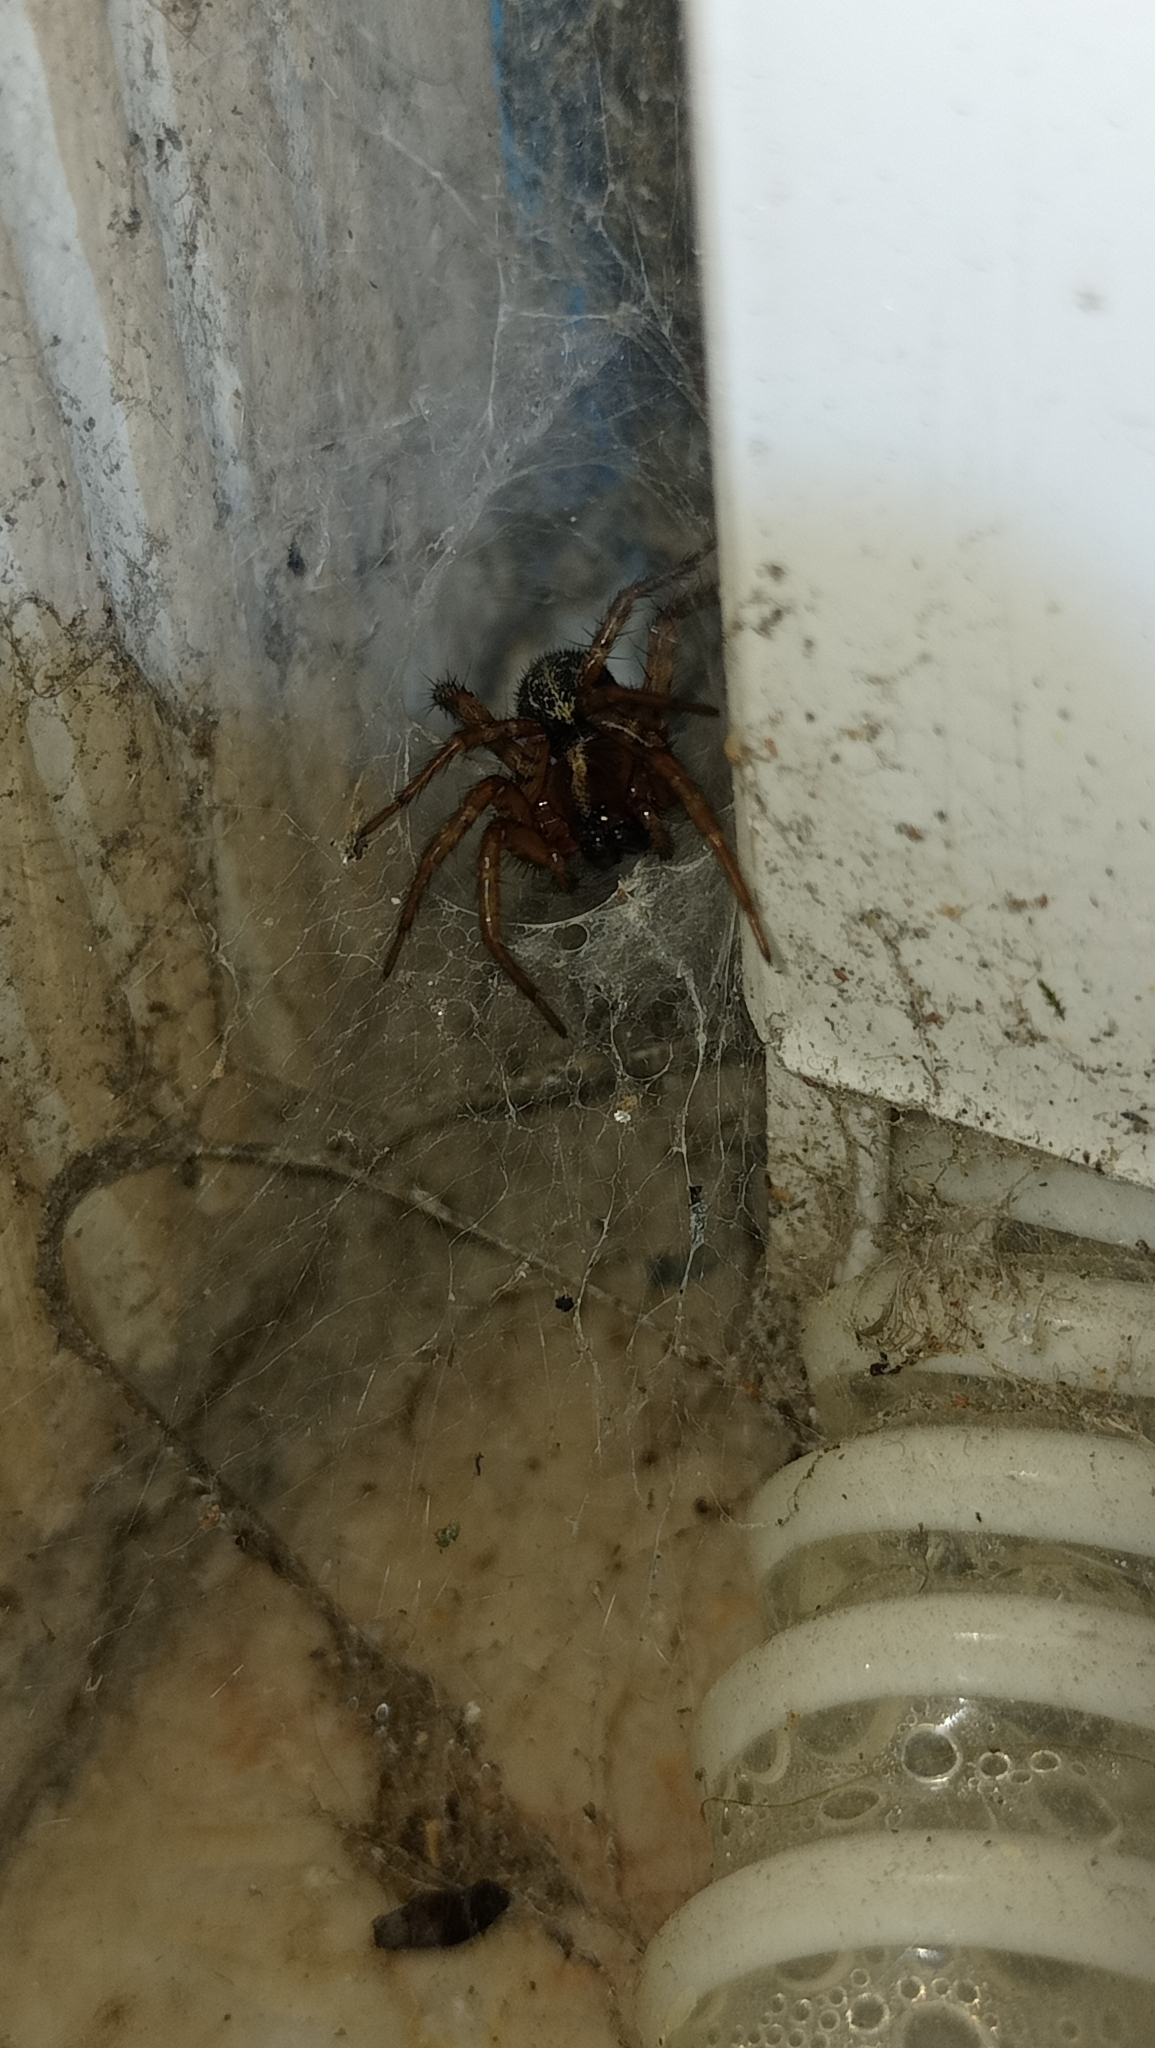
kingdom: Animalia
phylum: Arthropoda
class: Arachnida
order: Araneae
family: Agelenidae
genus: Maimuna
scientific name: Maimuna vestita
